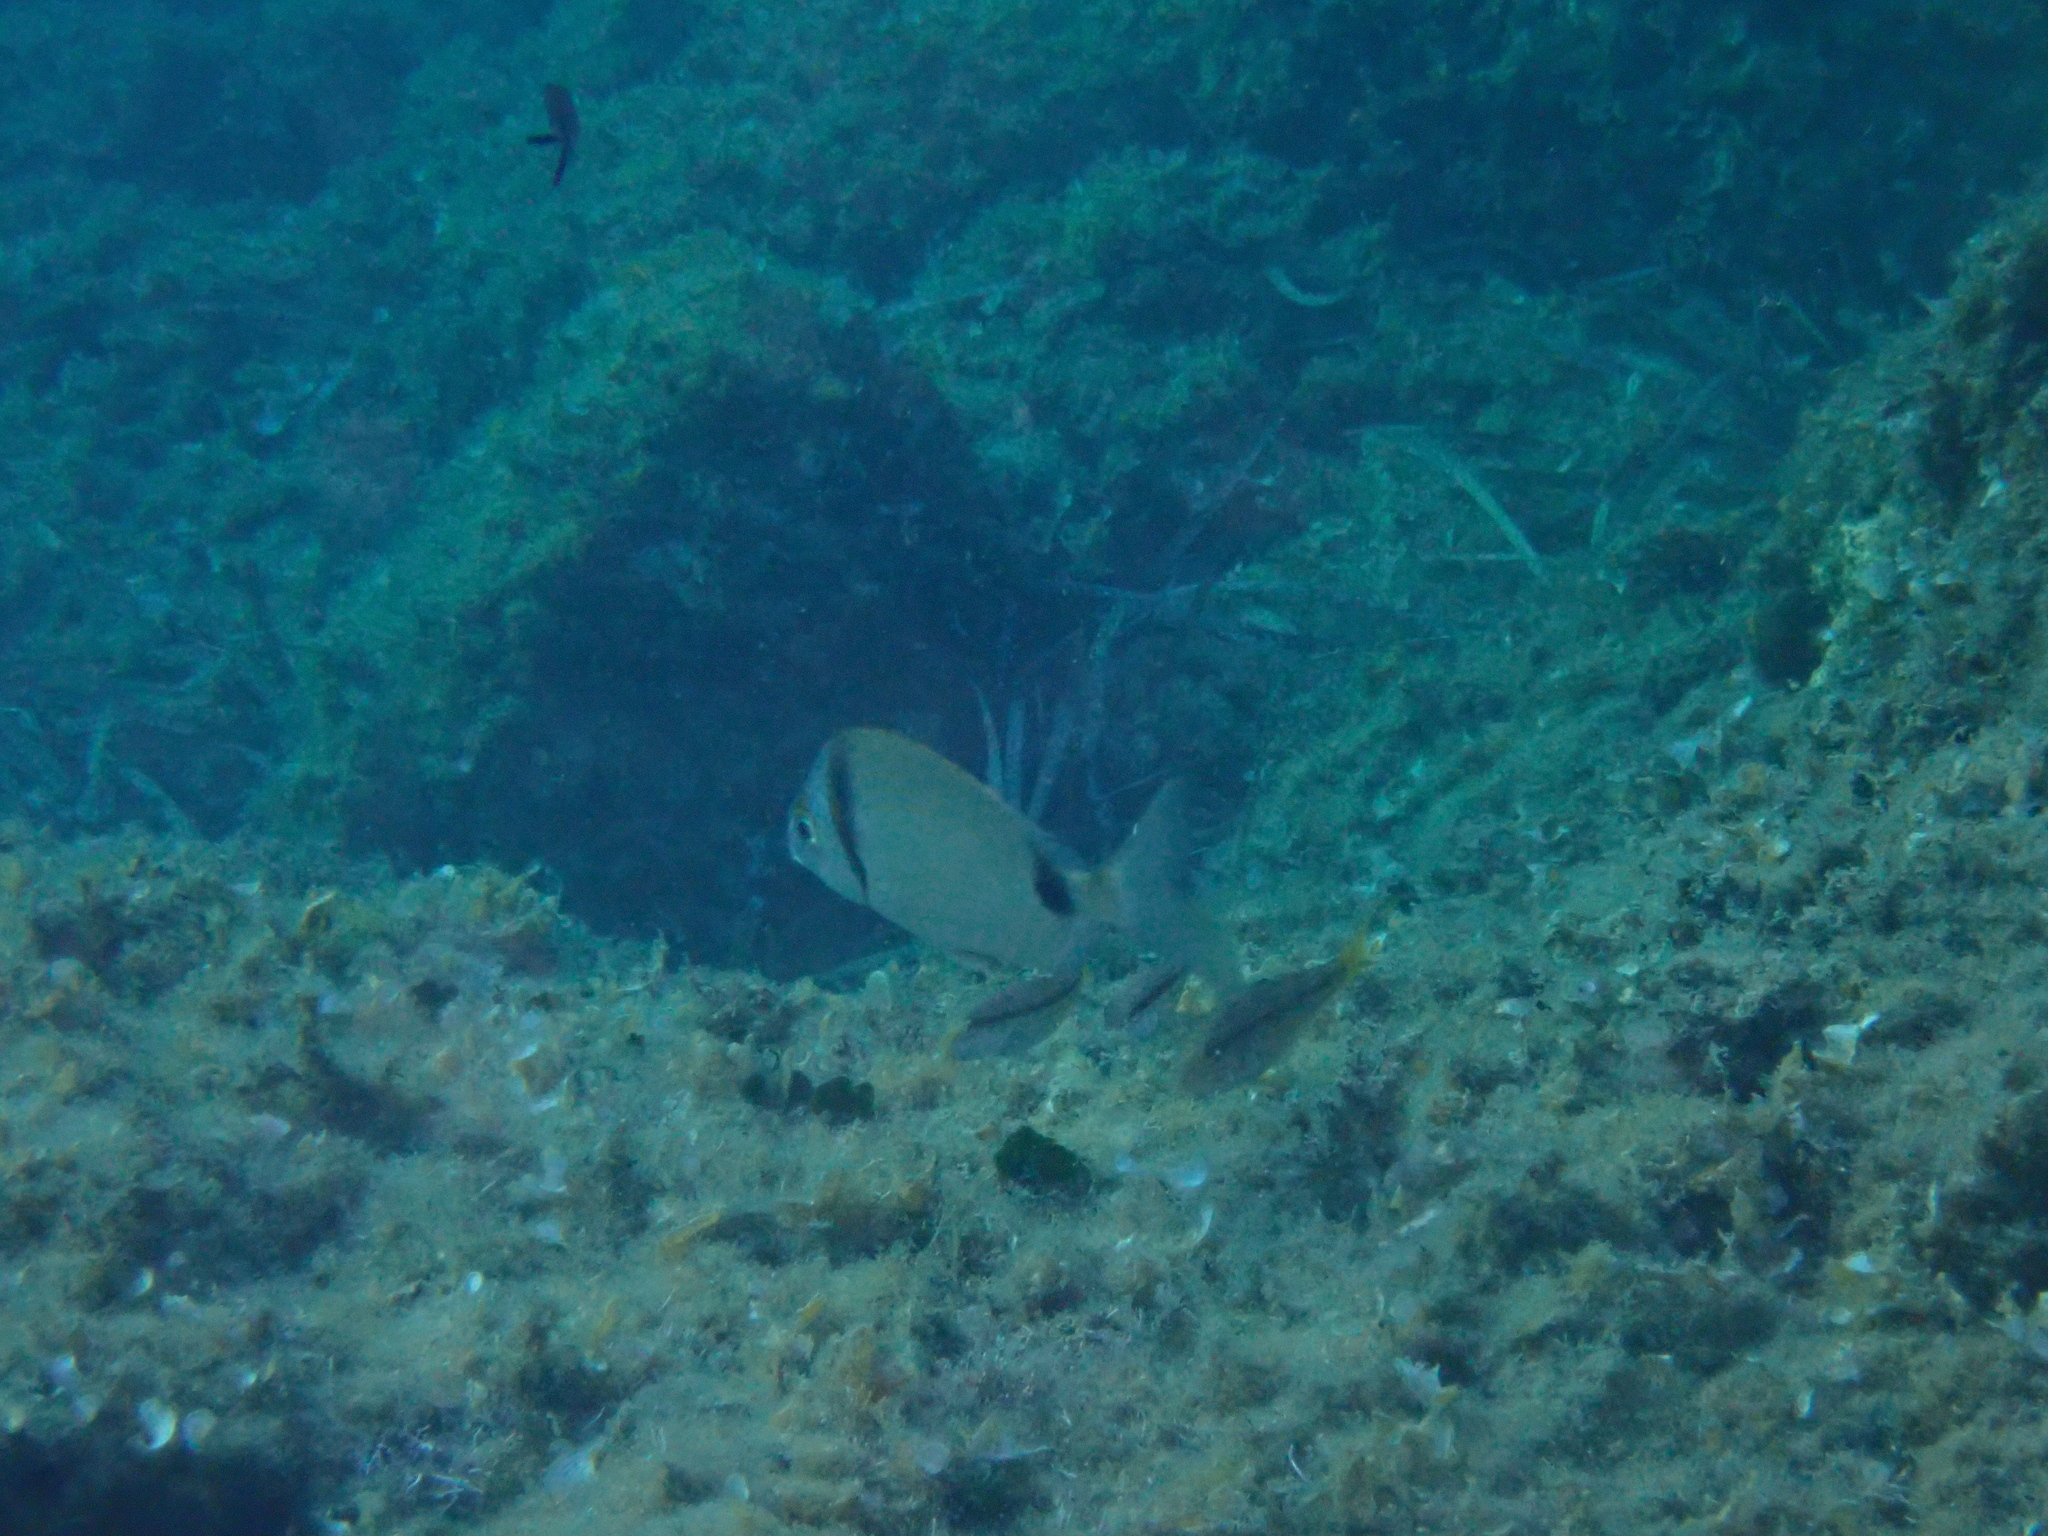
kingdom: Animalia
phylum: Chordata
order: Perciformes
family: Sparidae
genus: Diplodus
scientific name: Diplodus vulgaris
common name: Common two-banded seabream
